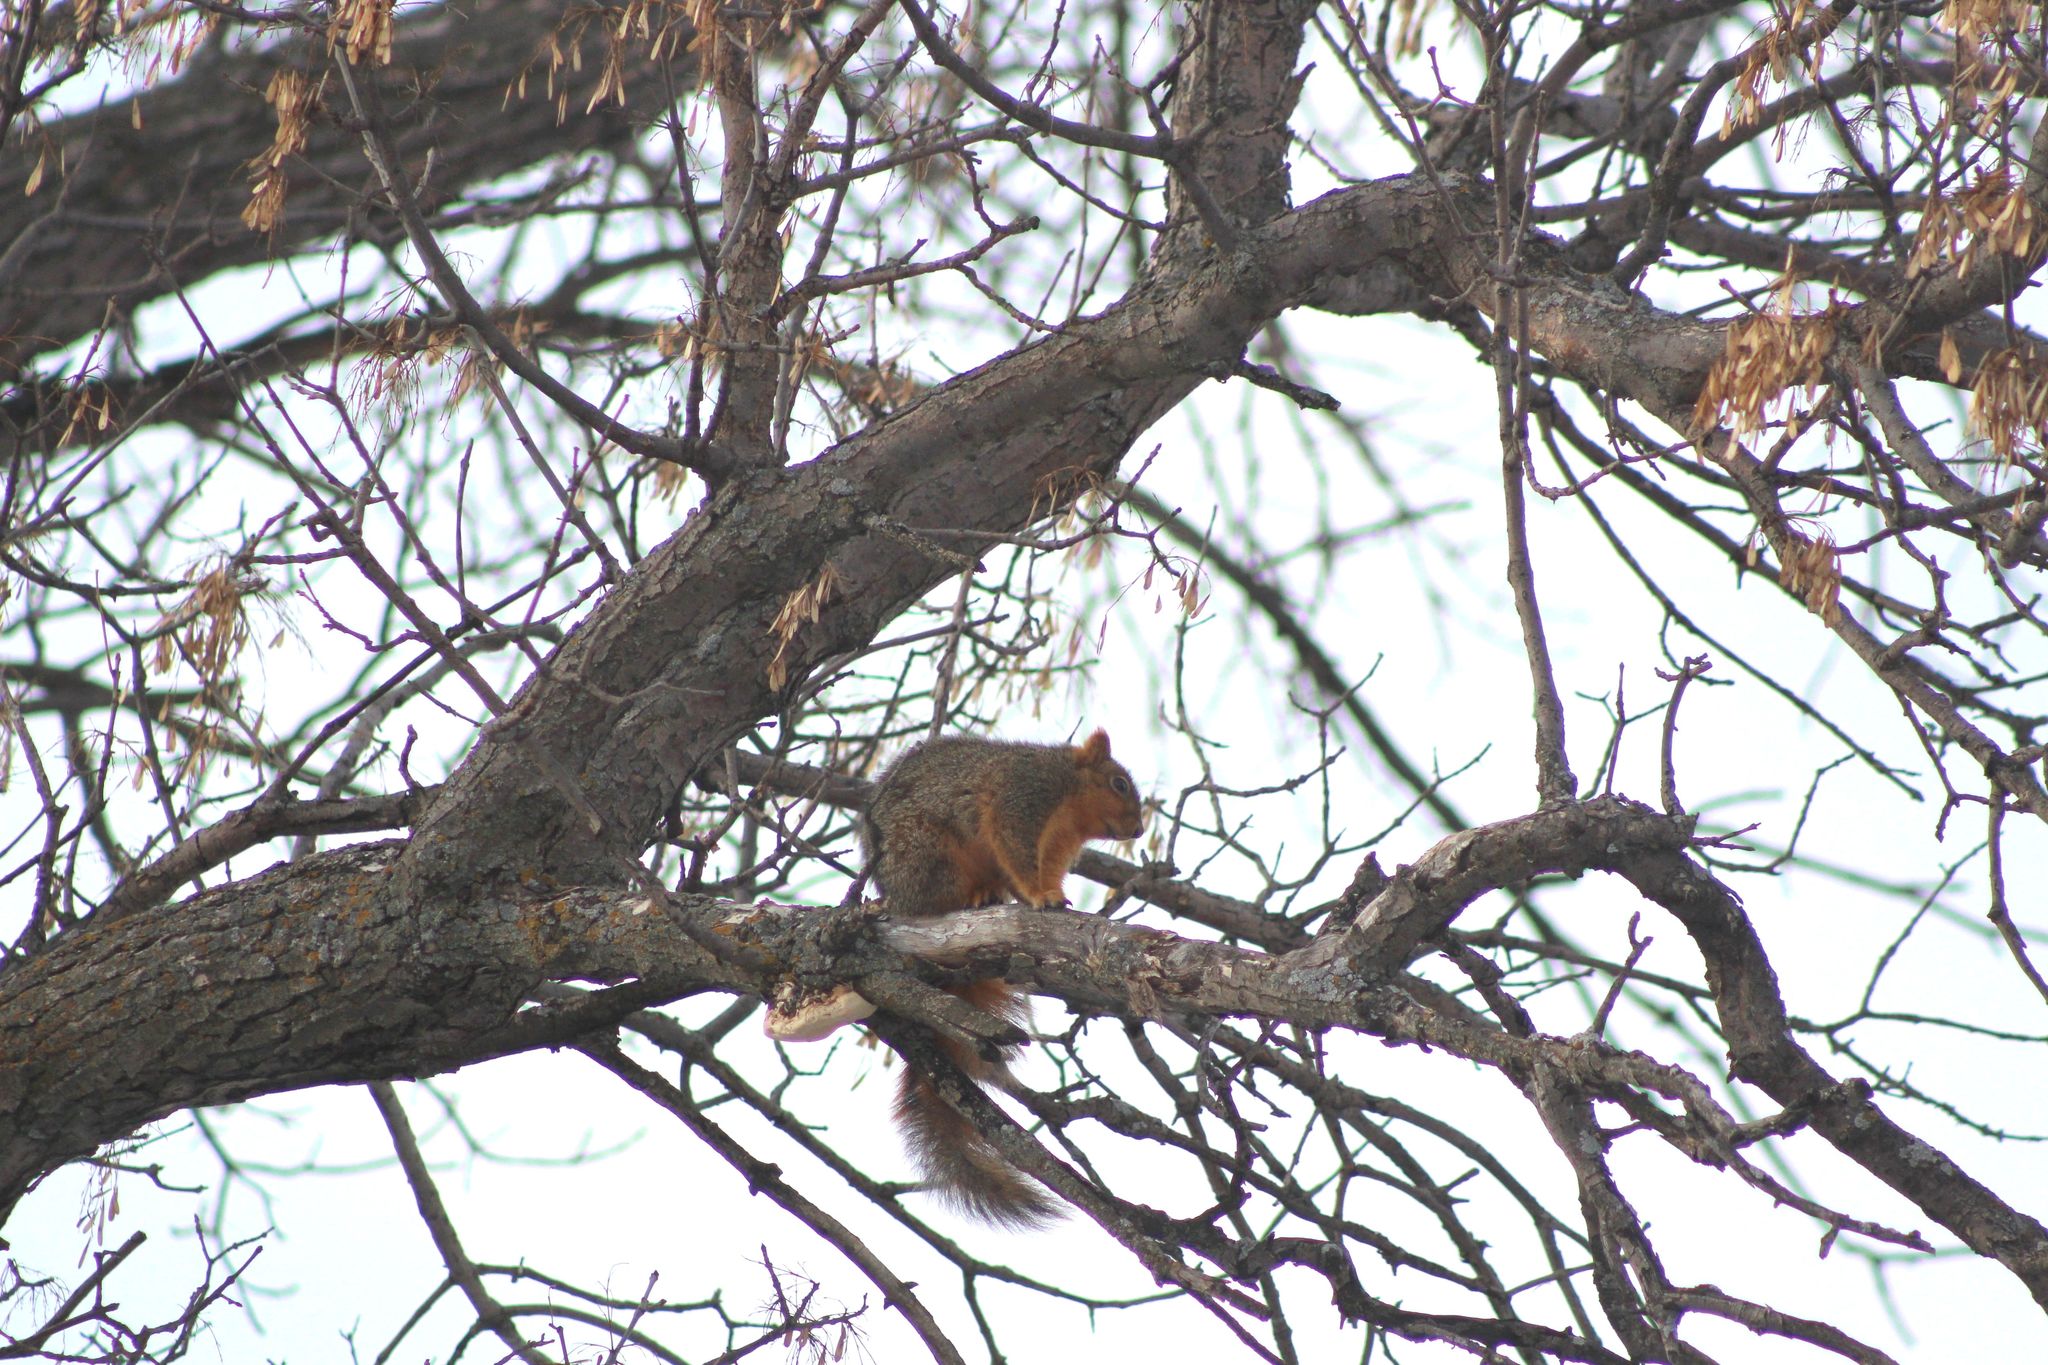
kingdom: Animalia
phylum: Chordata
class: Mammalia
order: Rodentia
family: Sciuridae
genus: Sciurus
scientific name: Sciurus niger
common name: Fox squirrel
